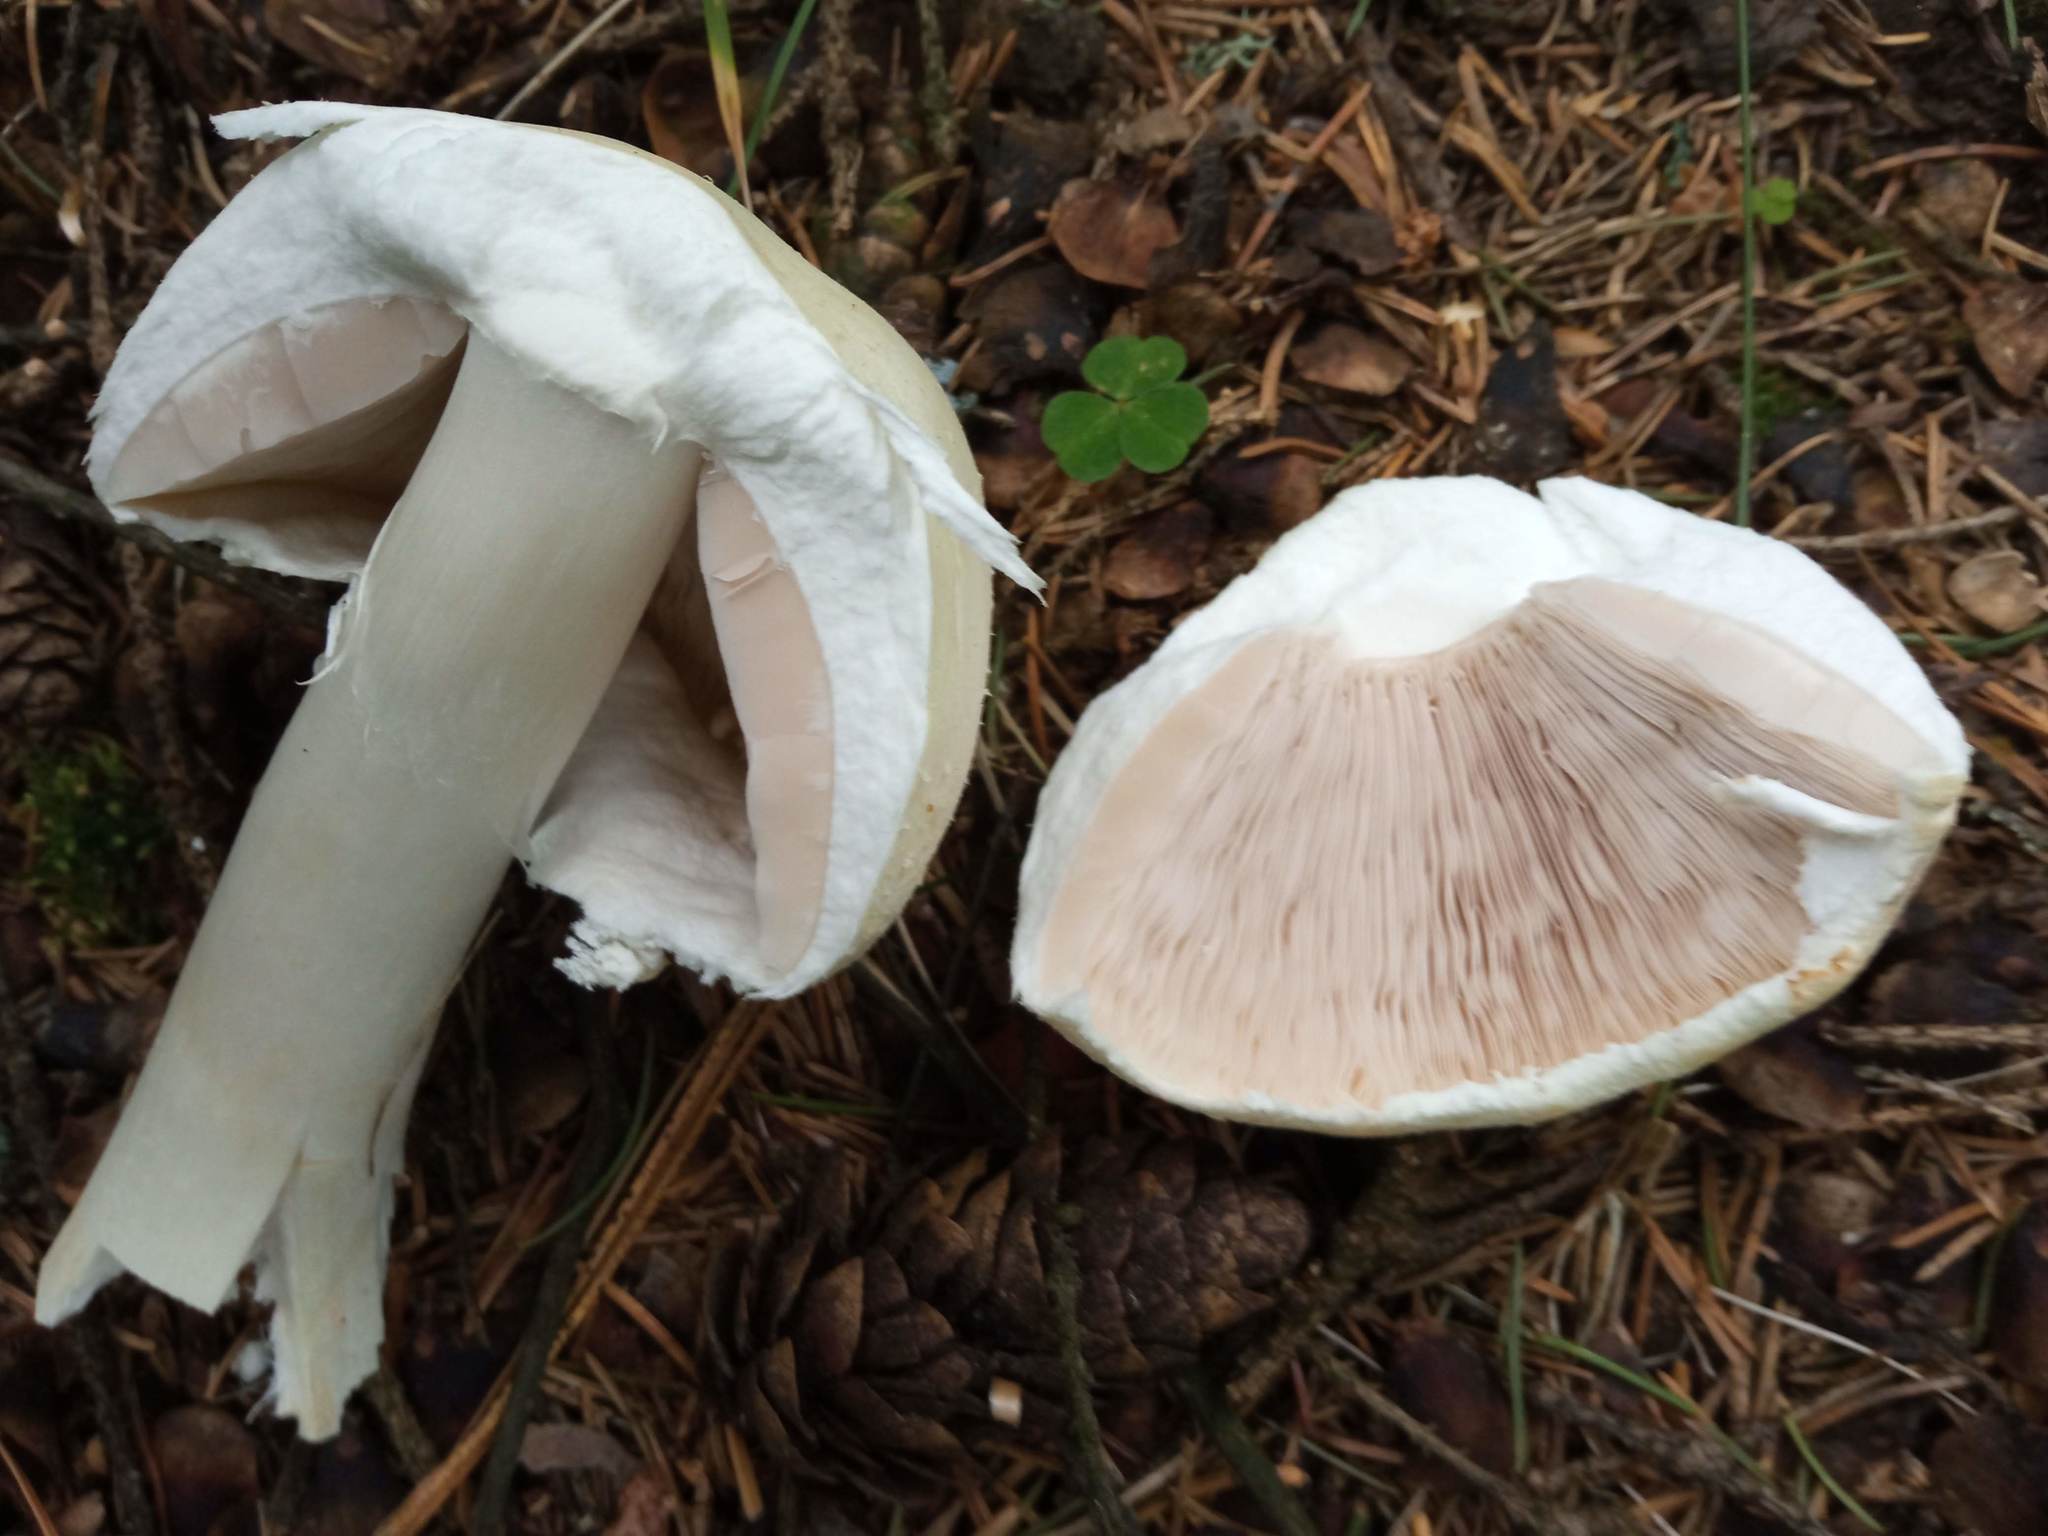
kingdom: Fungi
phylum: Basidiomycota
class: Agaricomycetes
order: Agaricales
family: Agaricaceae
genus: Agaricus
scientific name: Agaricus sylvicola
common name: Wood mushroom
